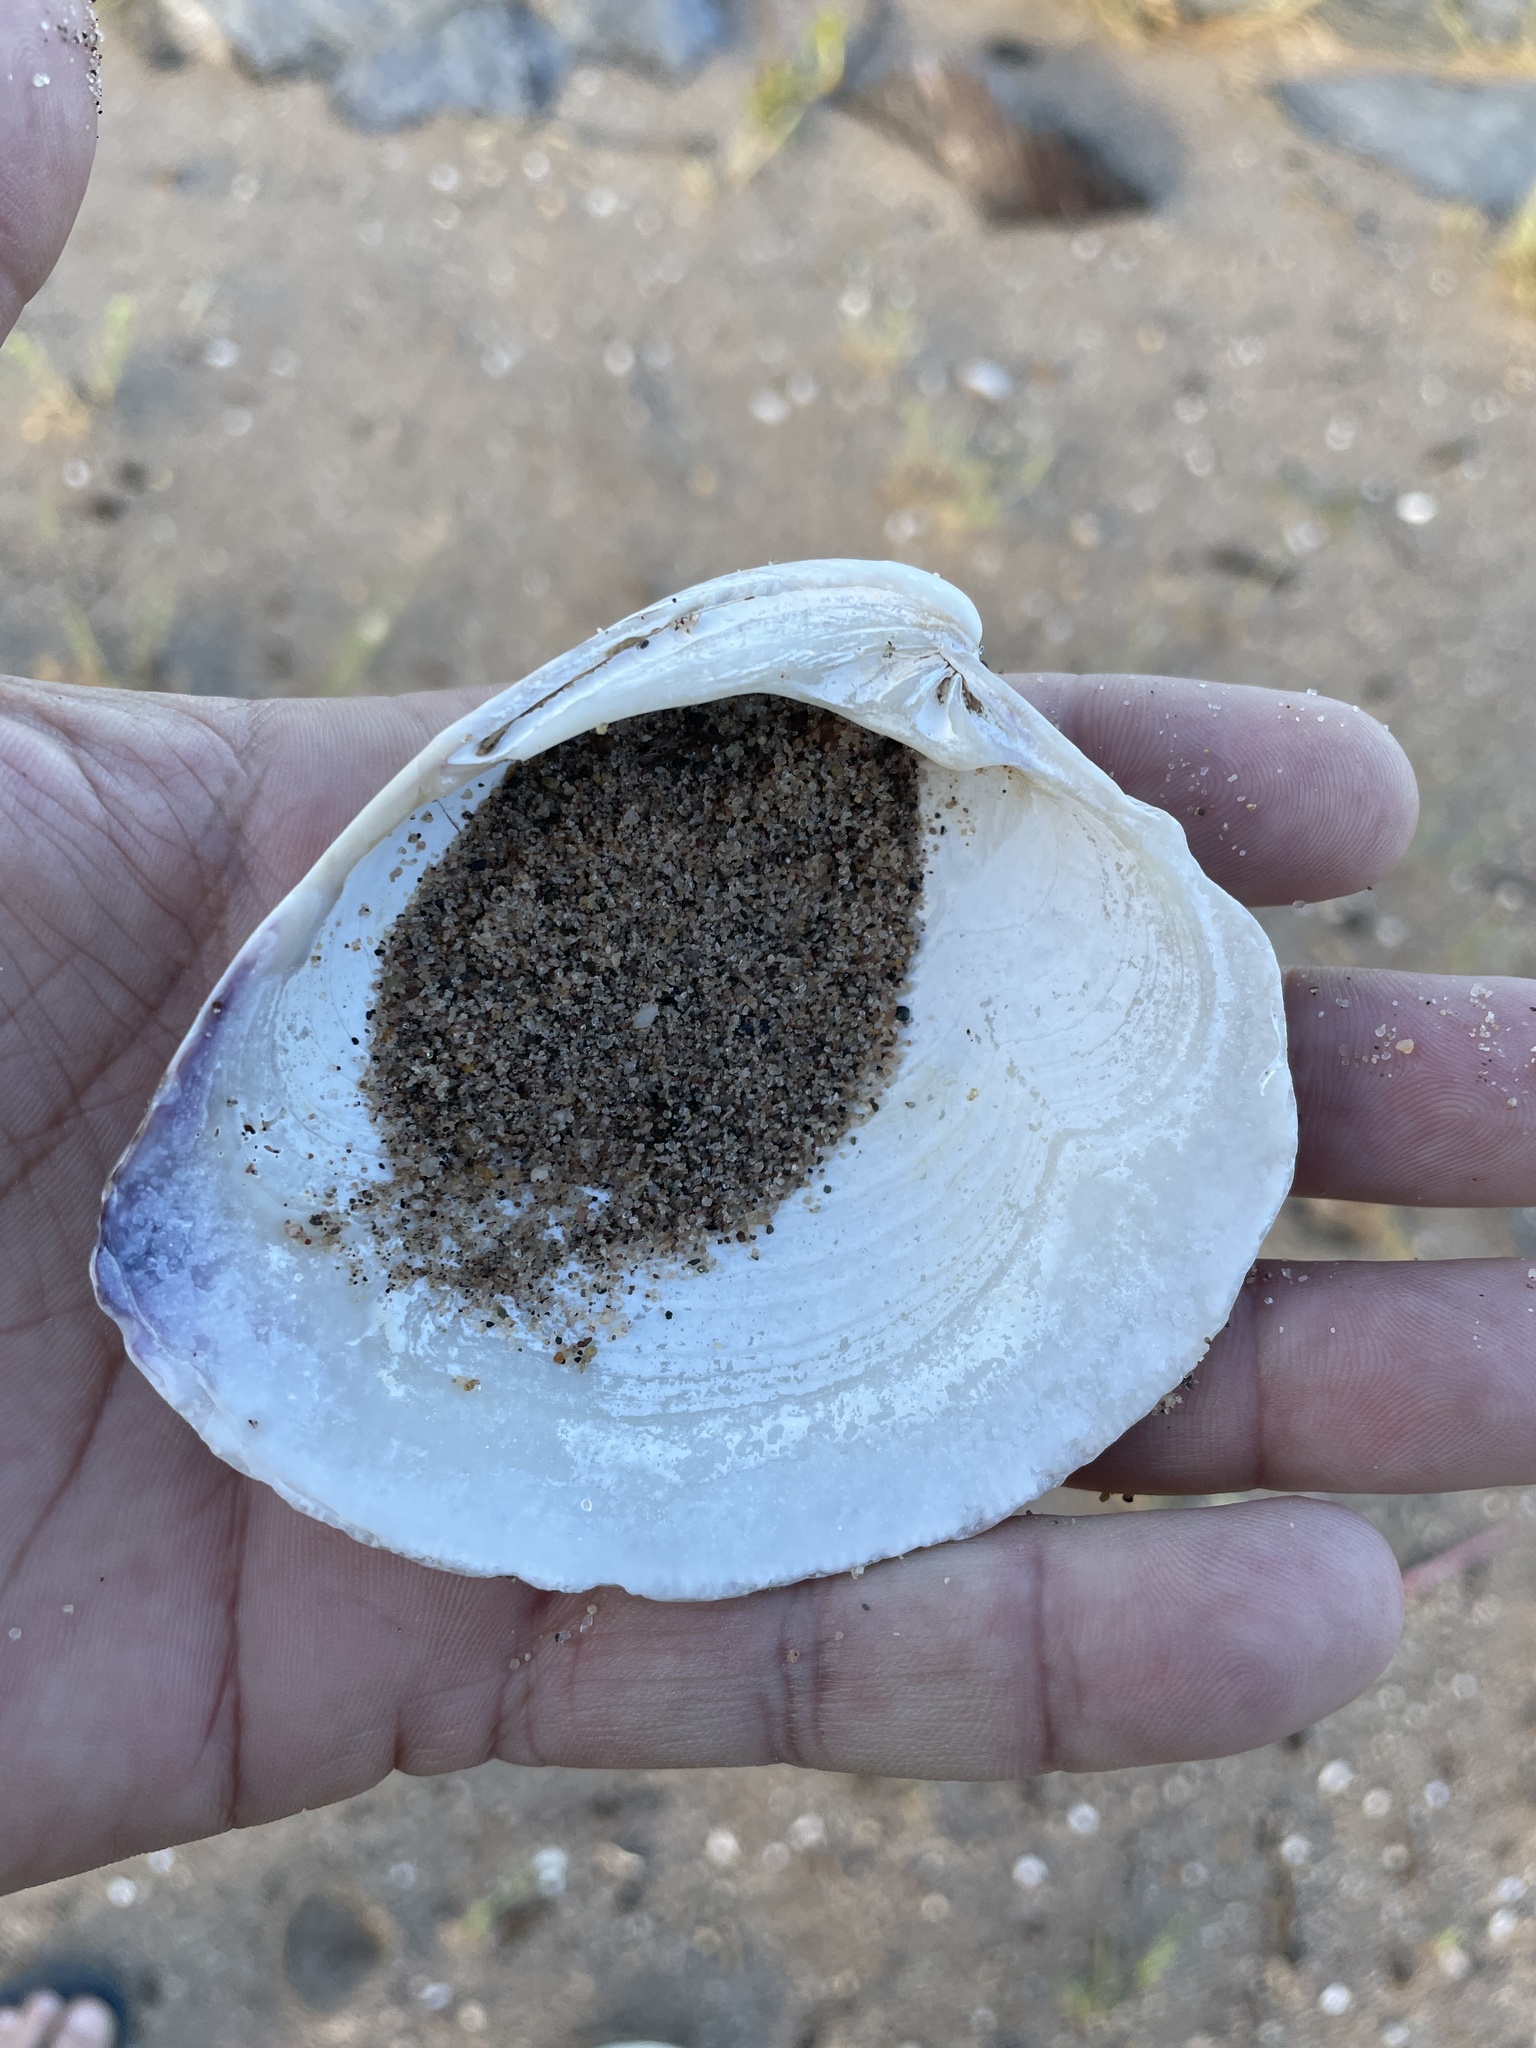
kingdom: Animalia
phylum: Mollusca
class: Bivalvia
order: Venerida
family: Veneridae
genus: Mercenaria
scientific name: Mercenaria mercenaria
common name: American hard-shelled clam
